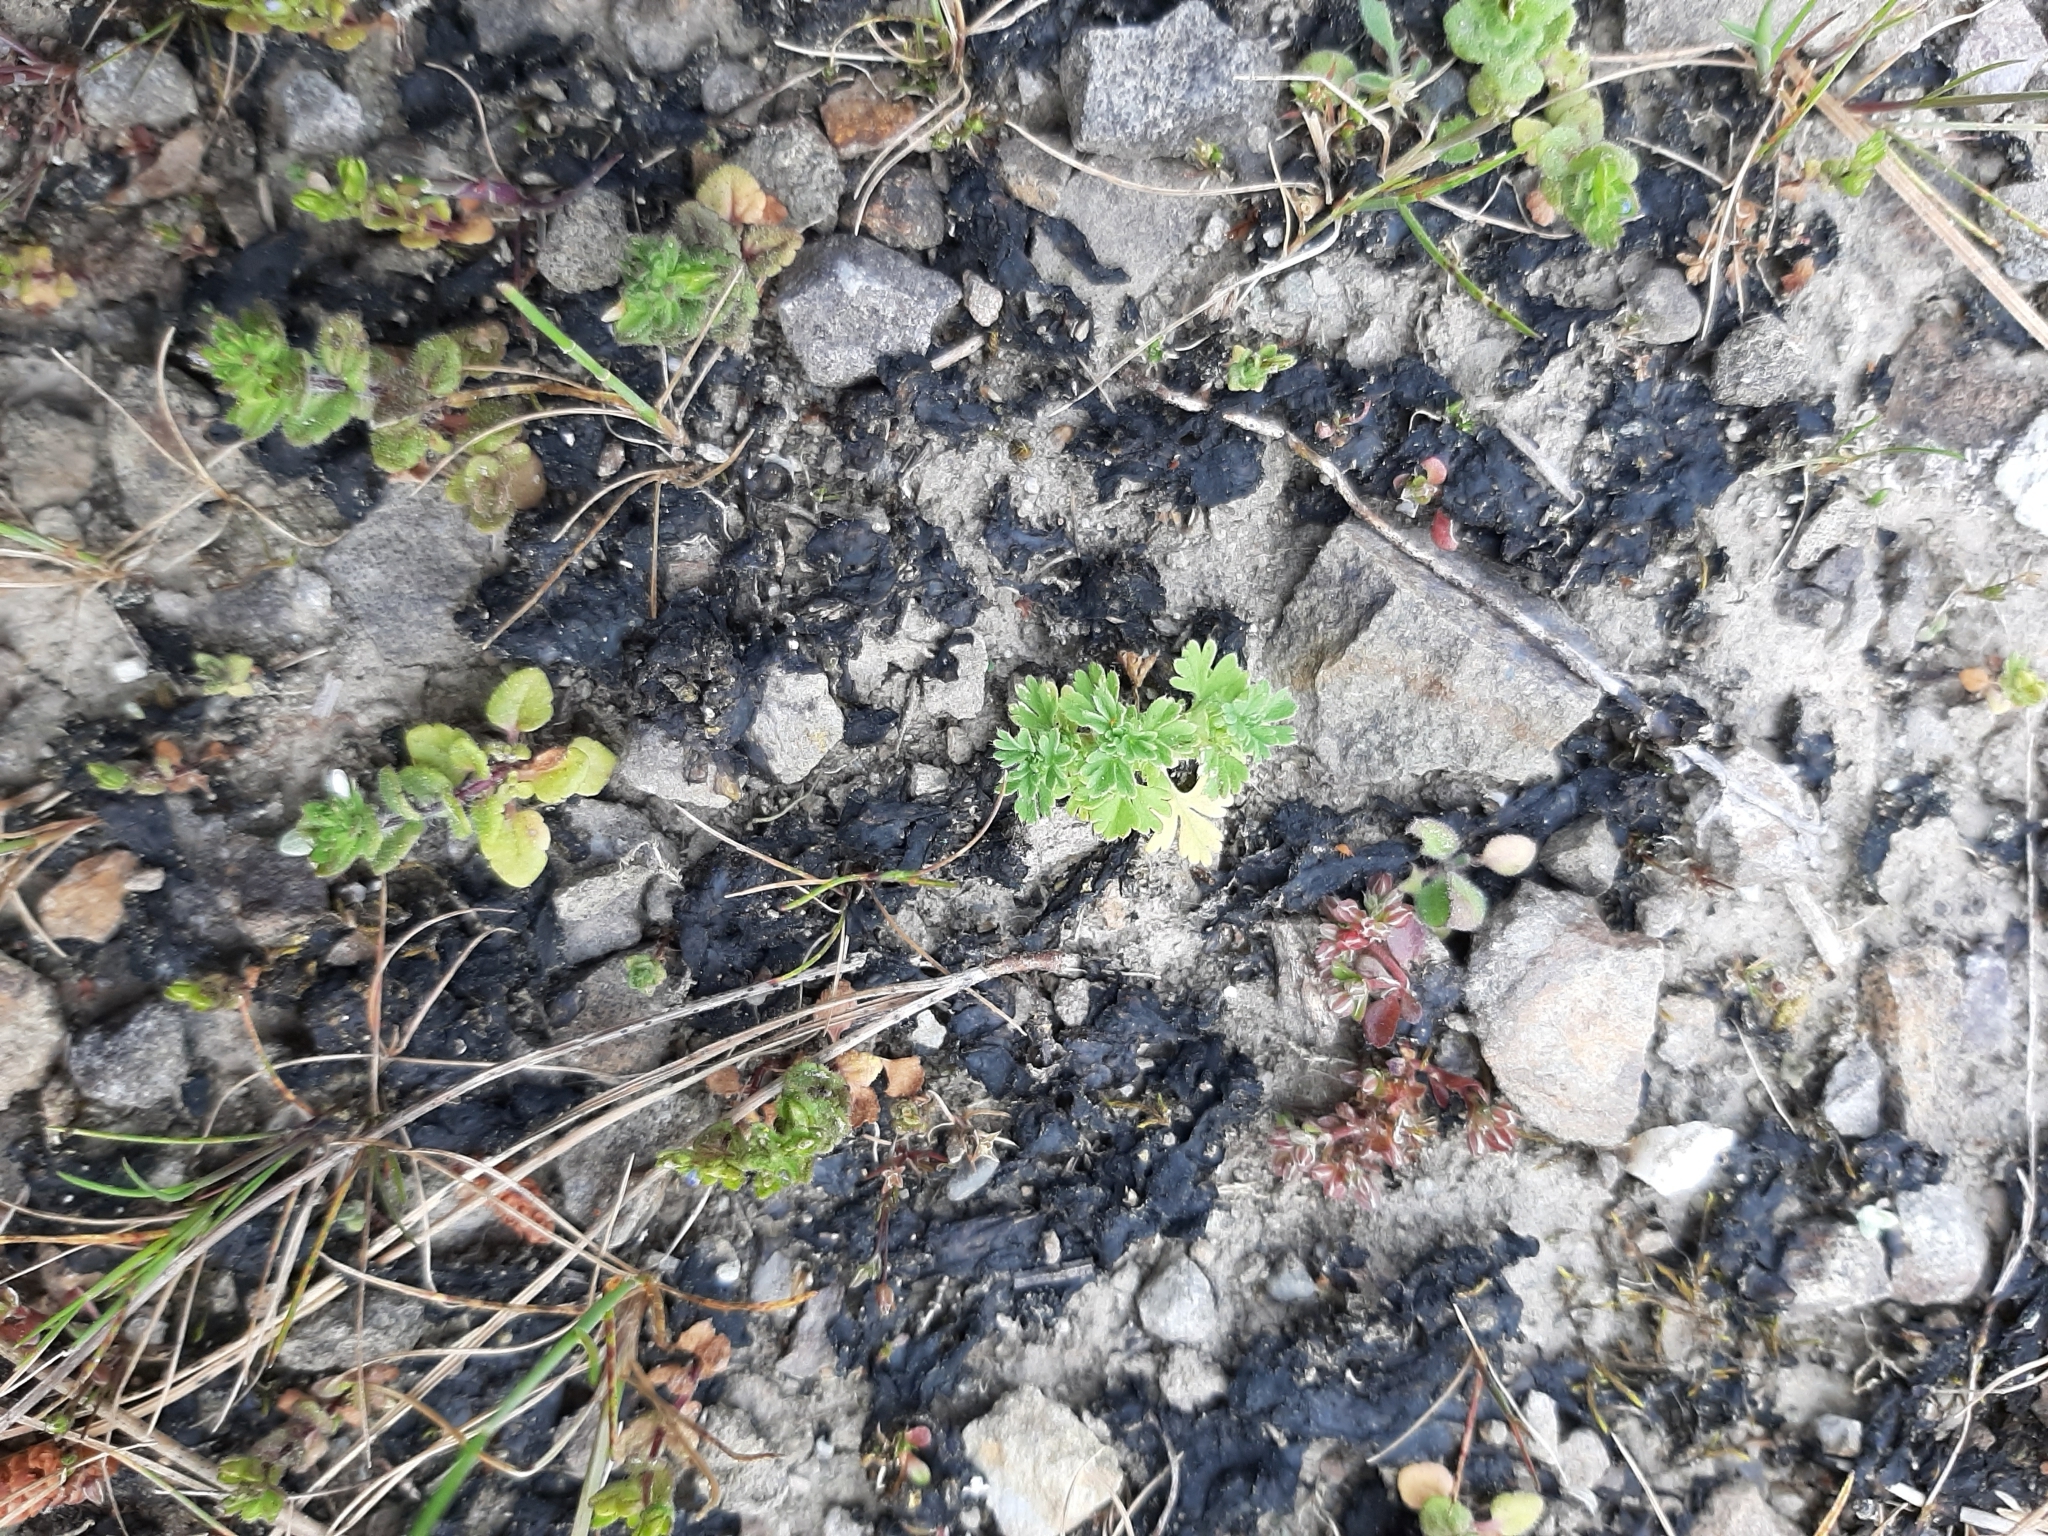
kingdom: Bacteria
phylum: Cyanobacteria
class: Cyanobacteriia
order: Cyanobacteriales
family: Nostocaceae
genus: Nostoc
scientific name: Nostoc commune
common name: Star jelly
